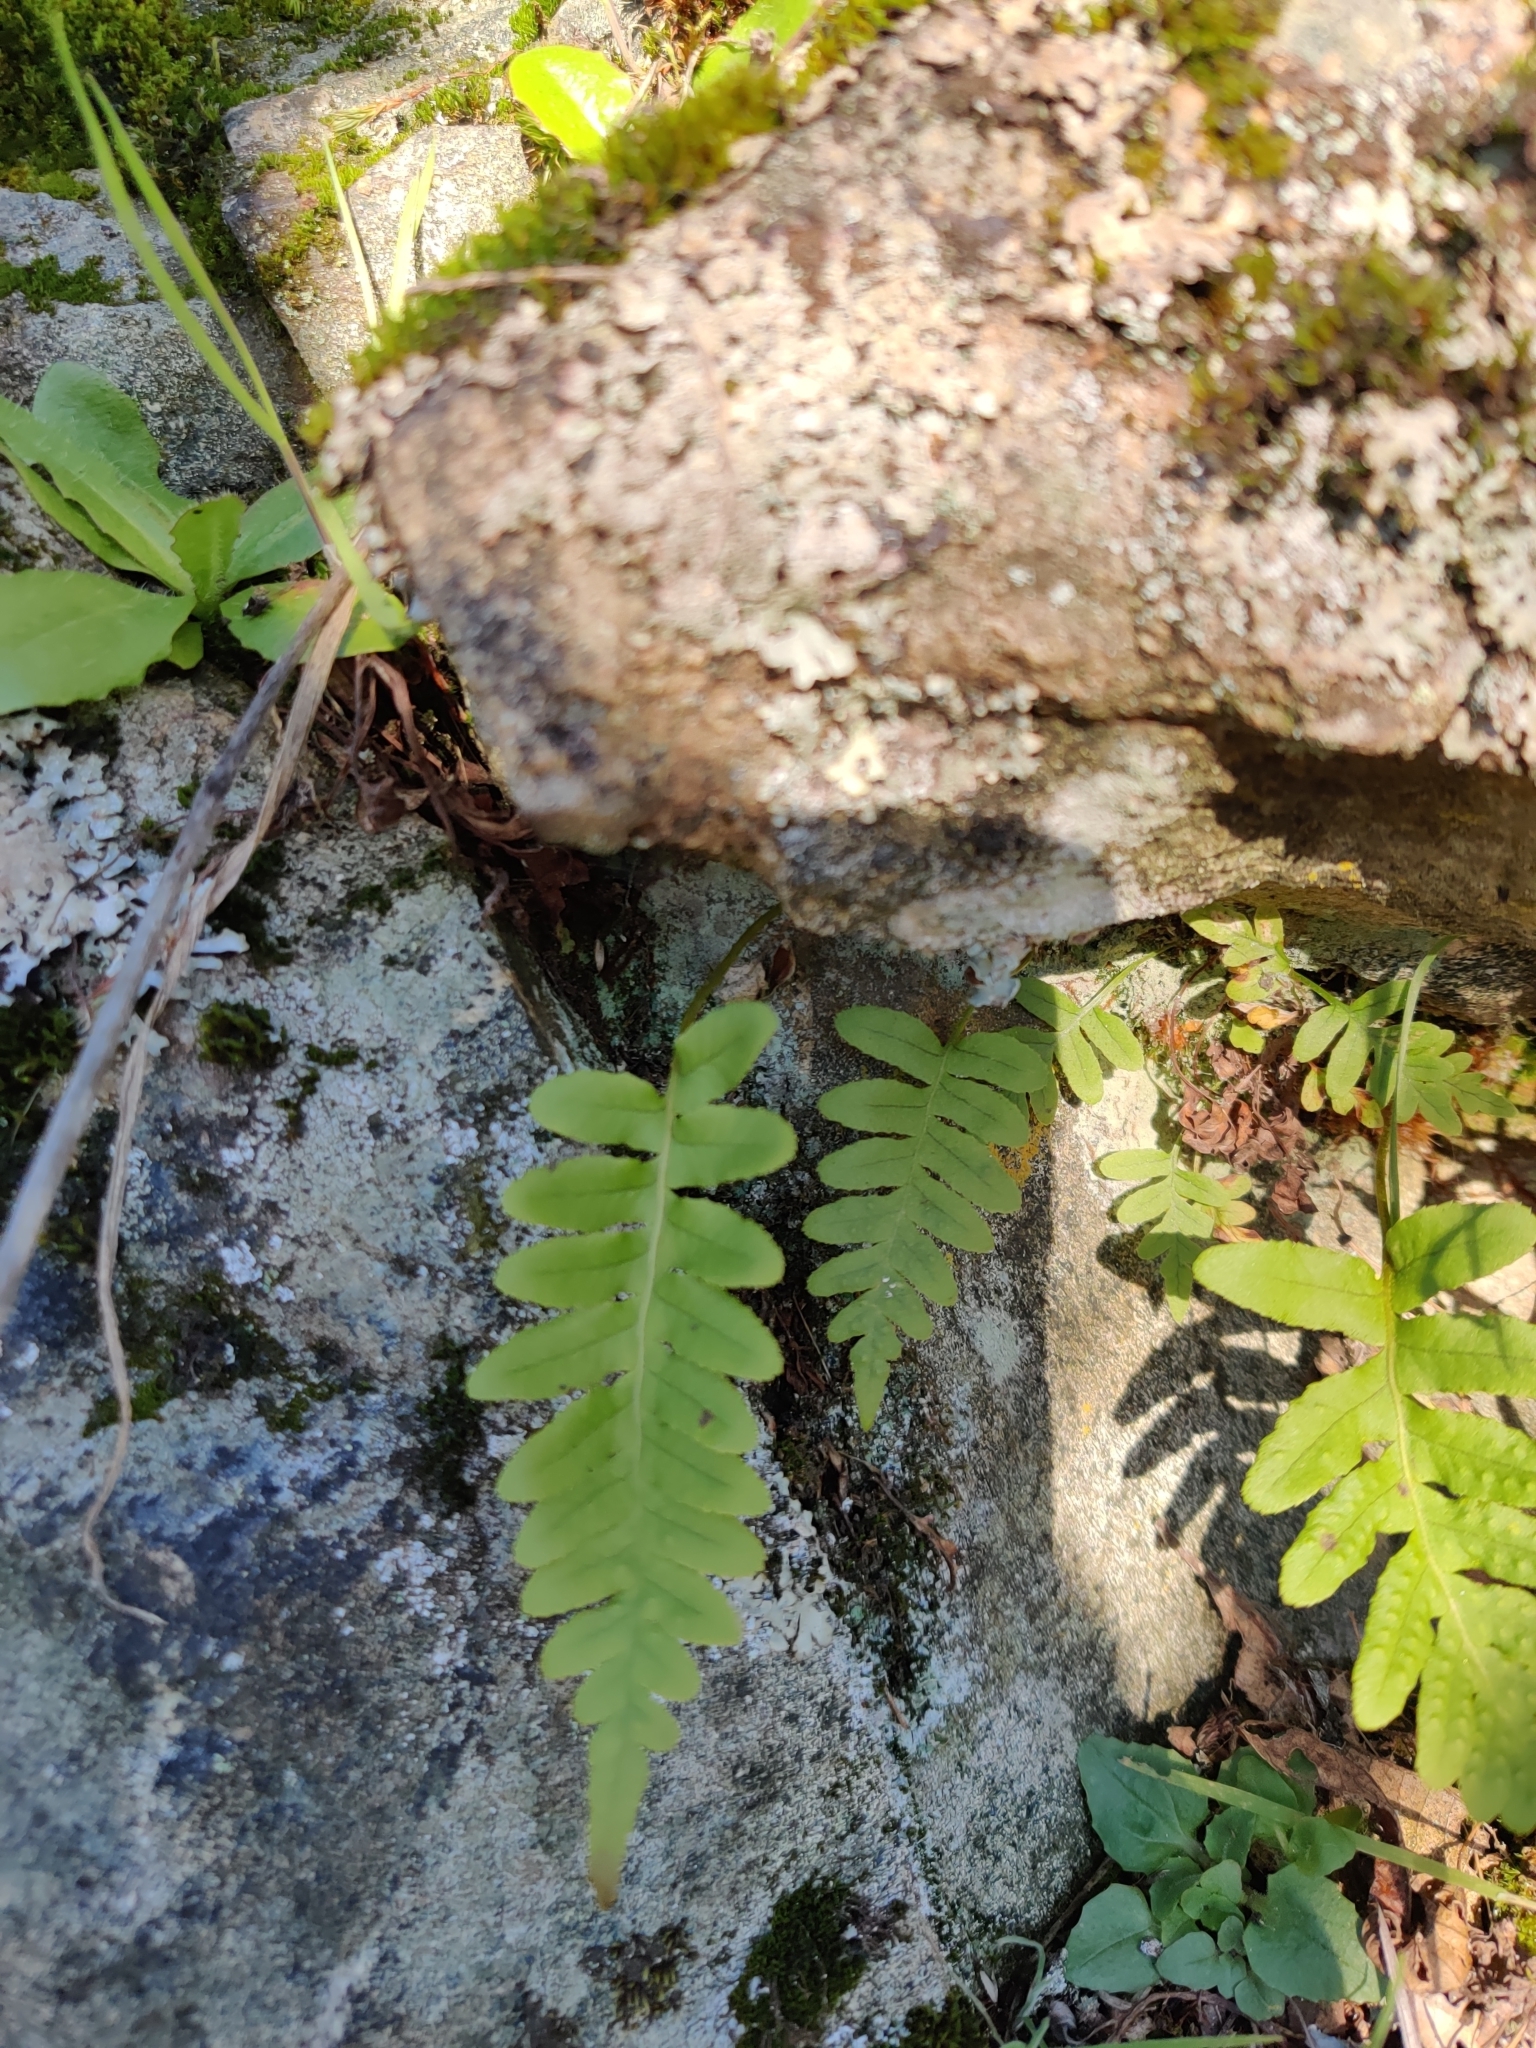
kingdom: Plantae
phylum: Tracheophyta
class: Polypodiopsida
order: Polypodiales
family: Polypodiaceae
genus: Polypodium
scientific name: Polypodium glycyrrhiza
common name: Licorice fern
